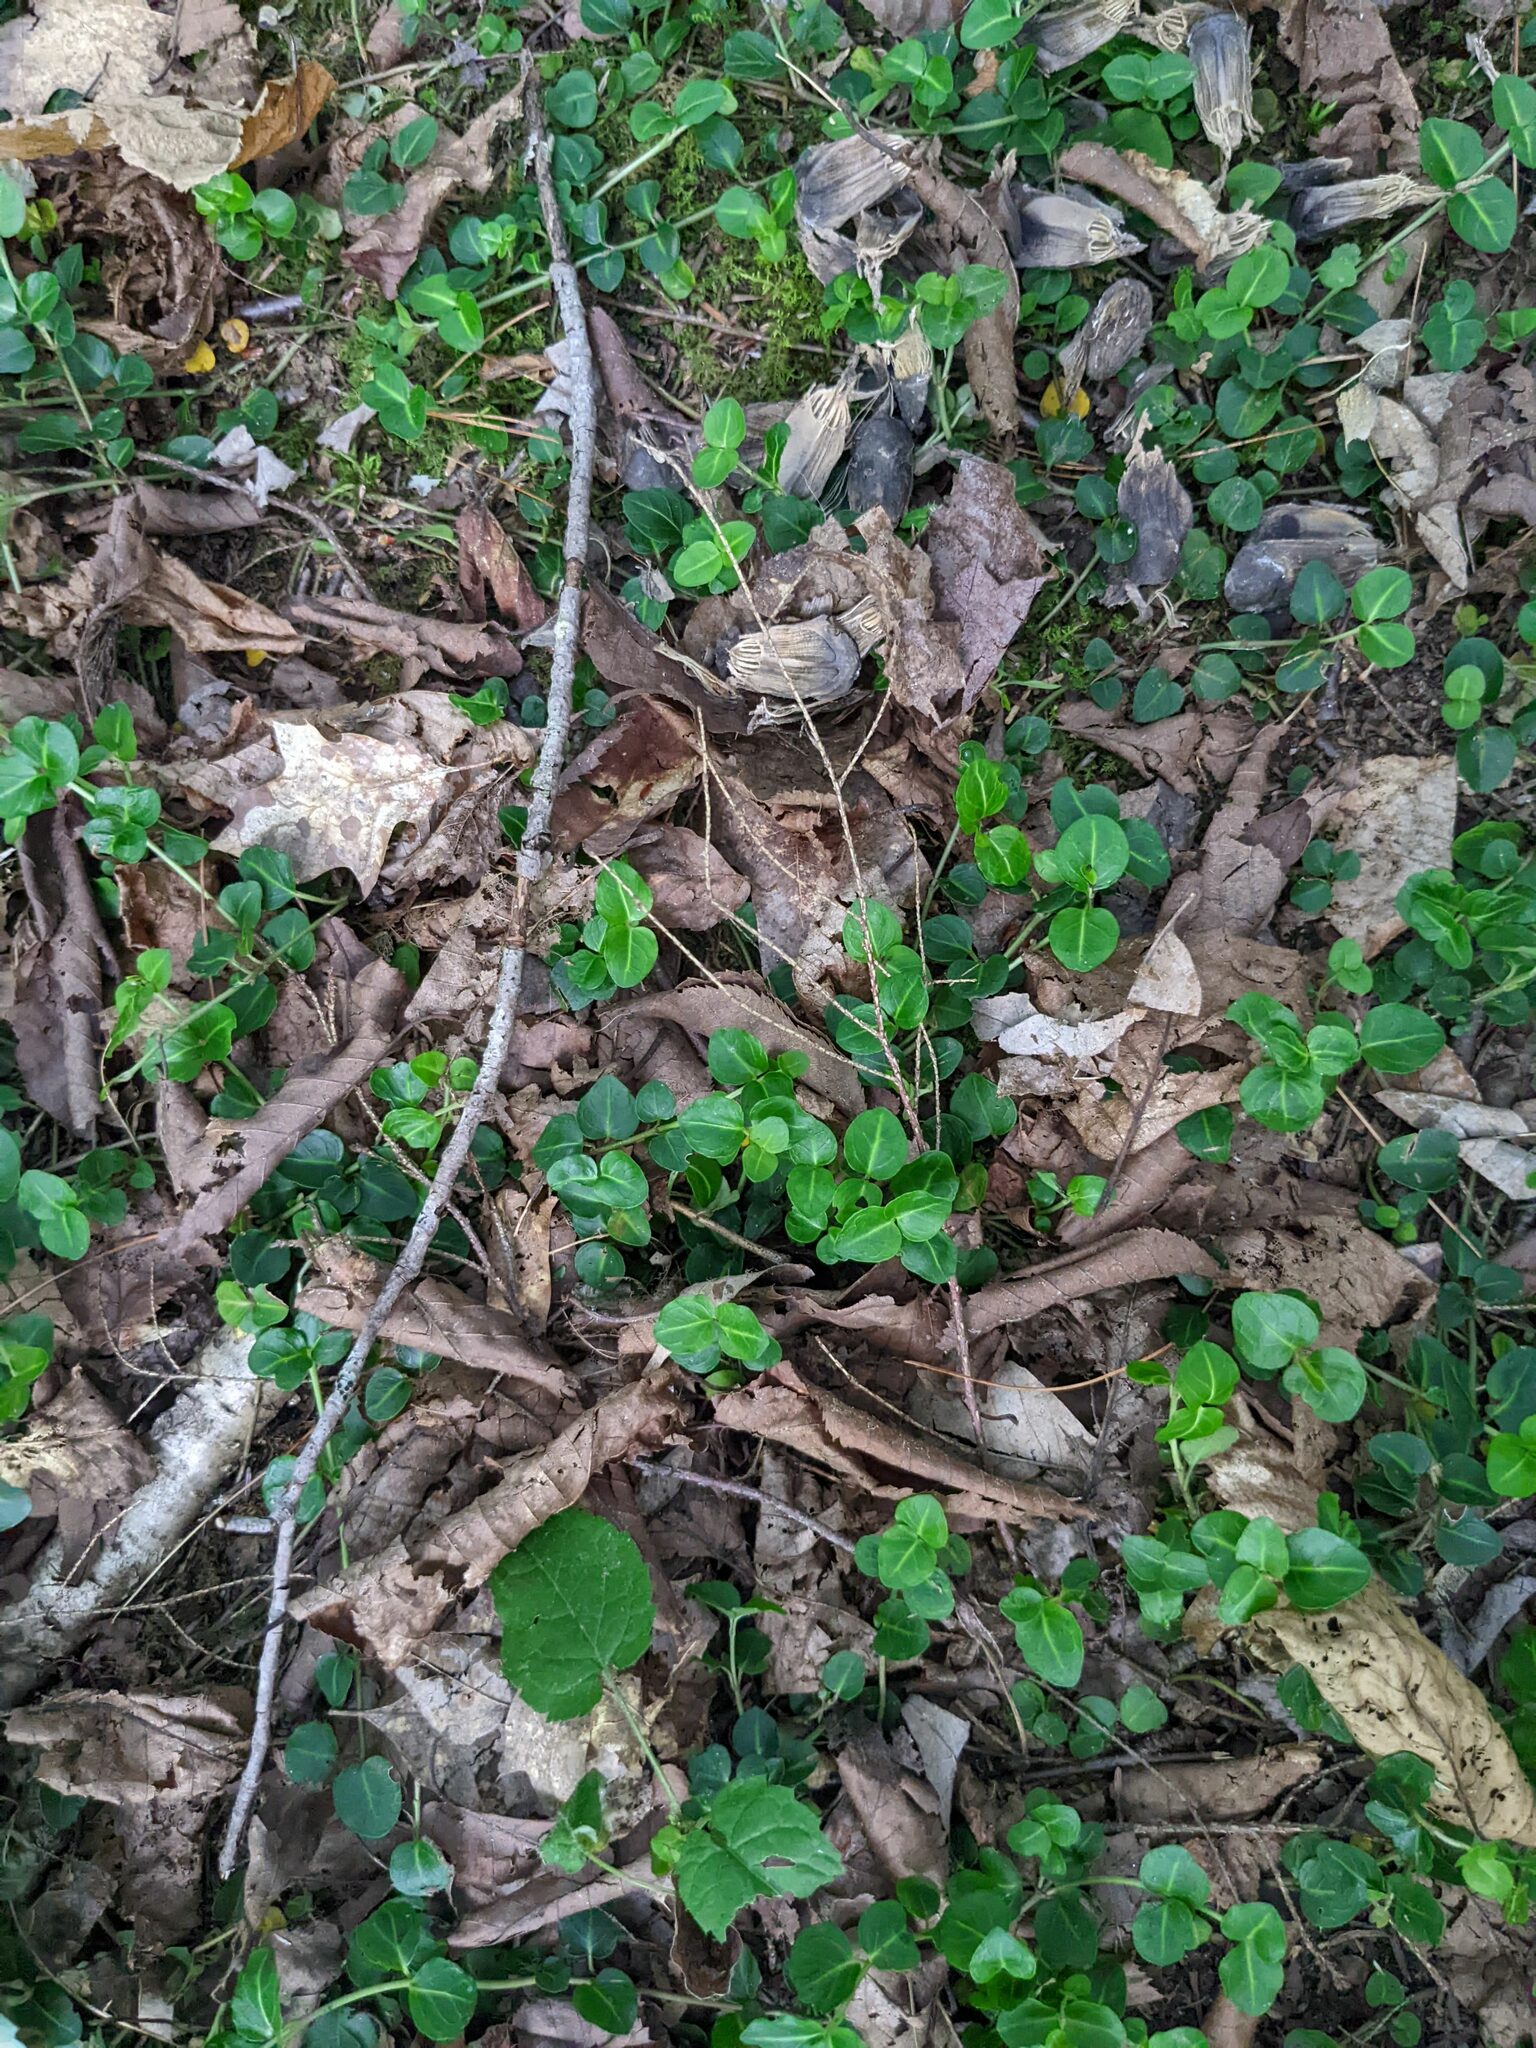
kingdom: Plantae
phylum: Tracheophyta
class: Magnoliopsida
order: Gentianales
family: Rubiaceae
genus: Mitchella
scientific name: Mitchella repens
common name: Partridge-berry
